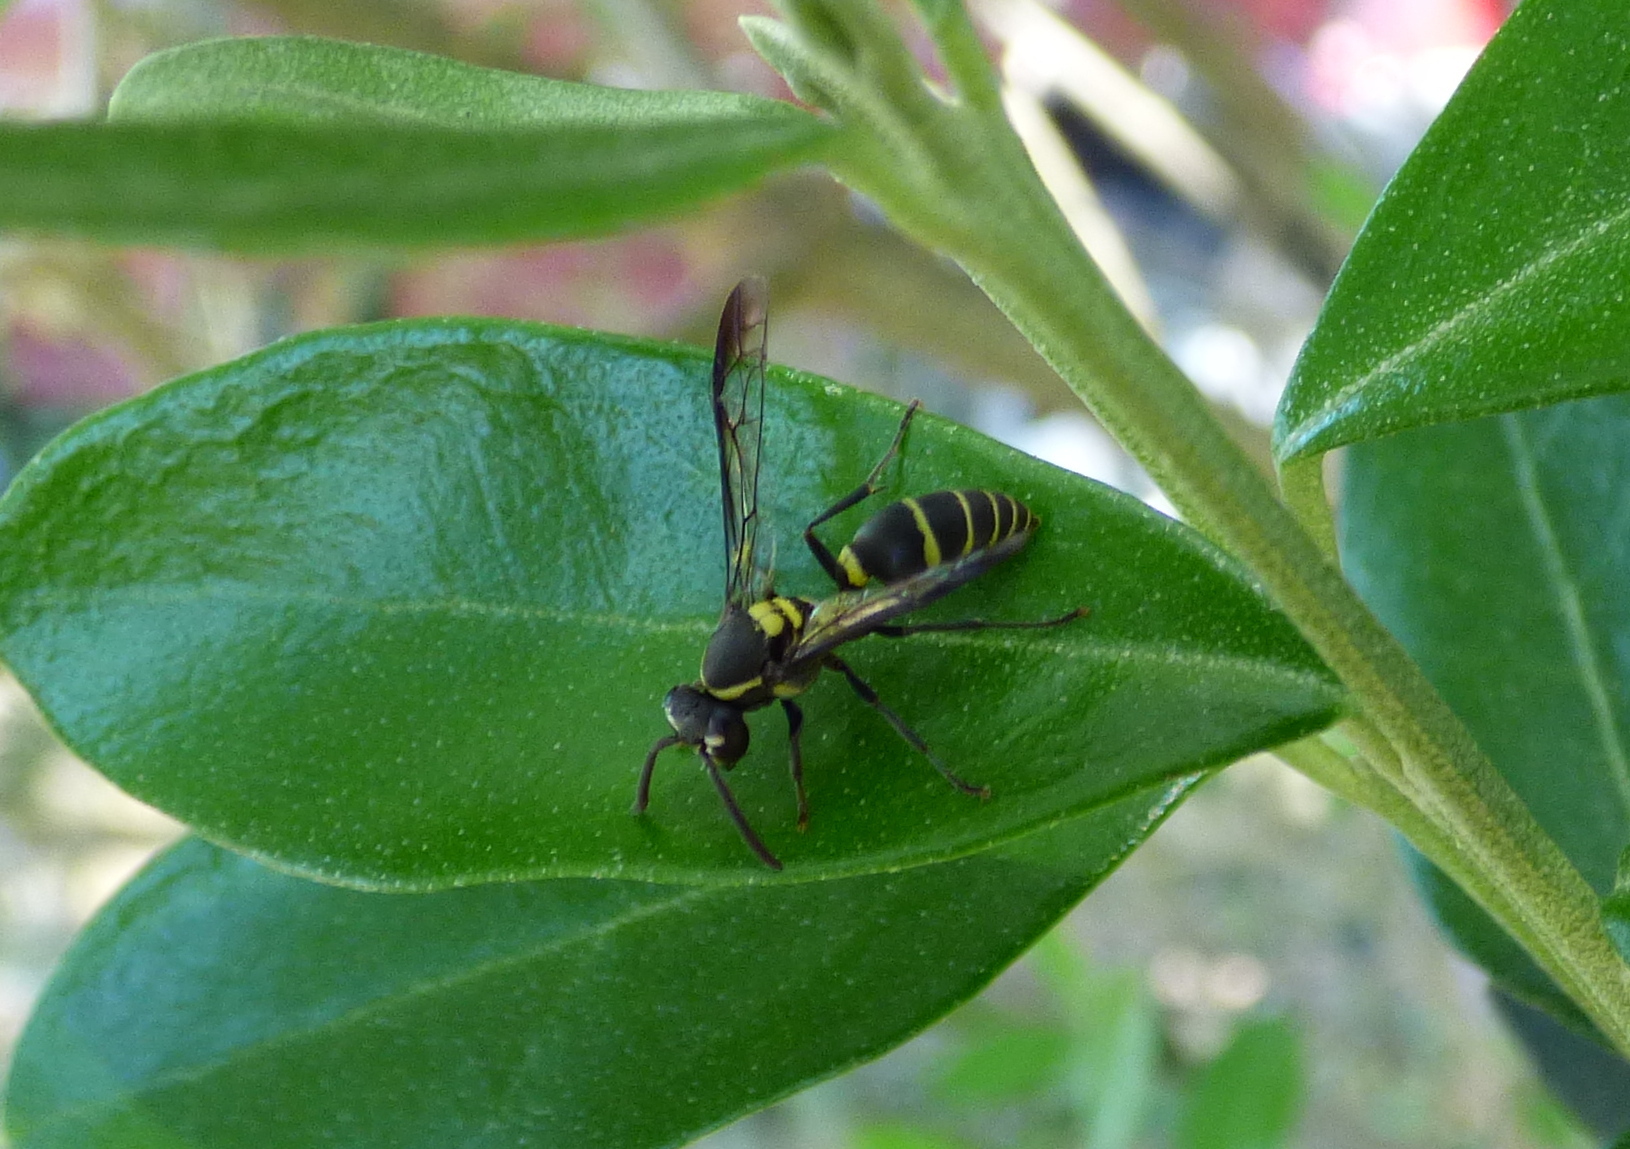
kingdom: Animalia
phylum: Arthropoda
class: Insecta
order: Hymenoptera
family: Eumenidae
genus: Polybia
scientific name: Polybia occidentalis
